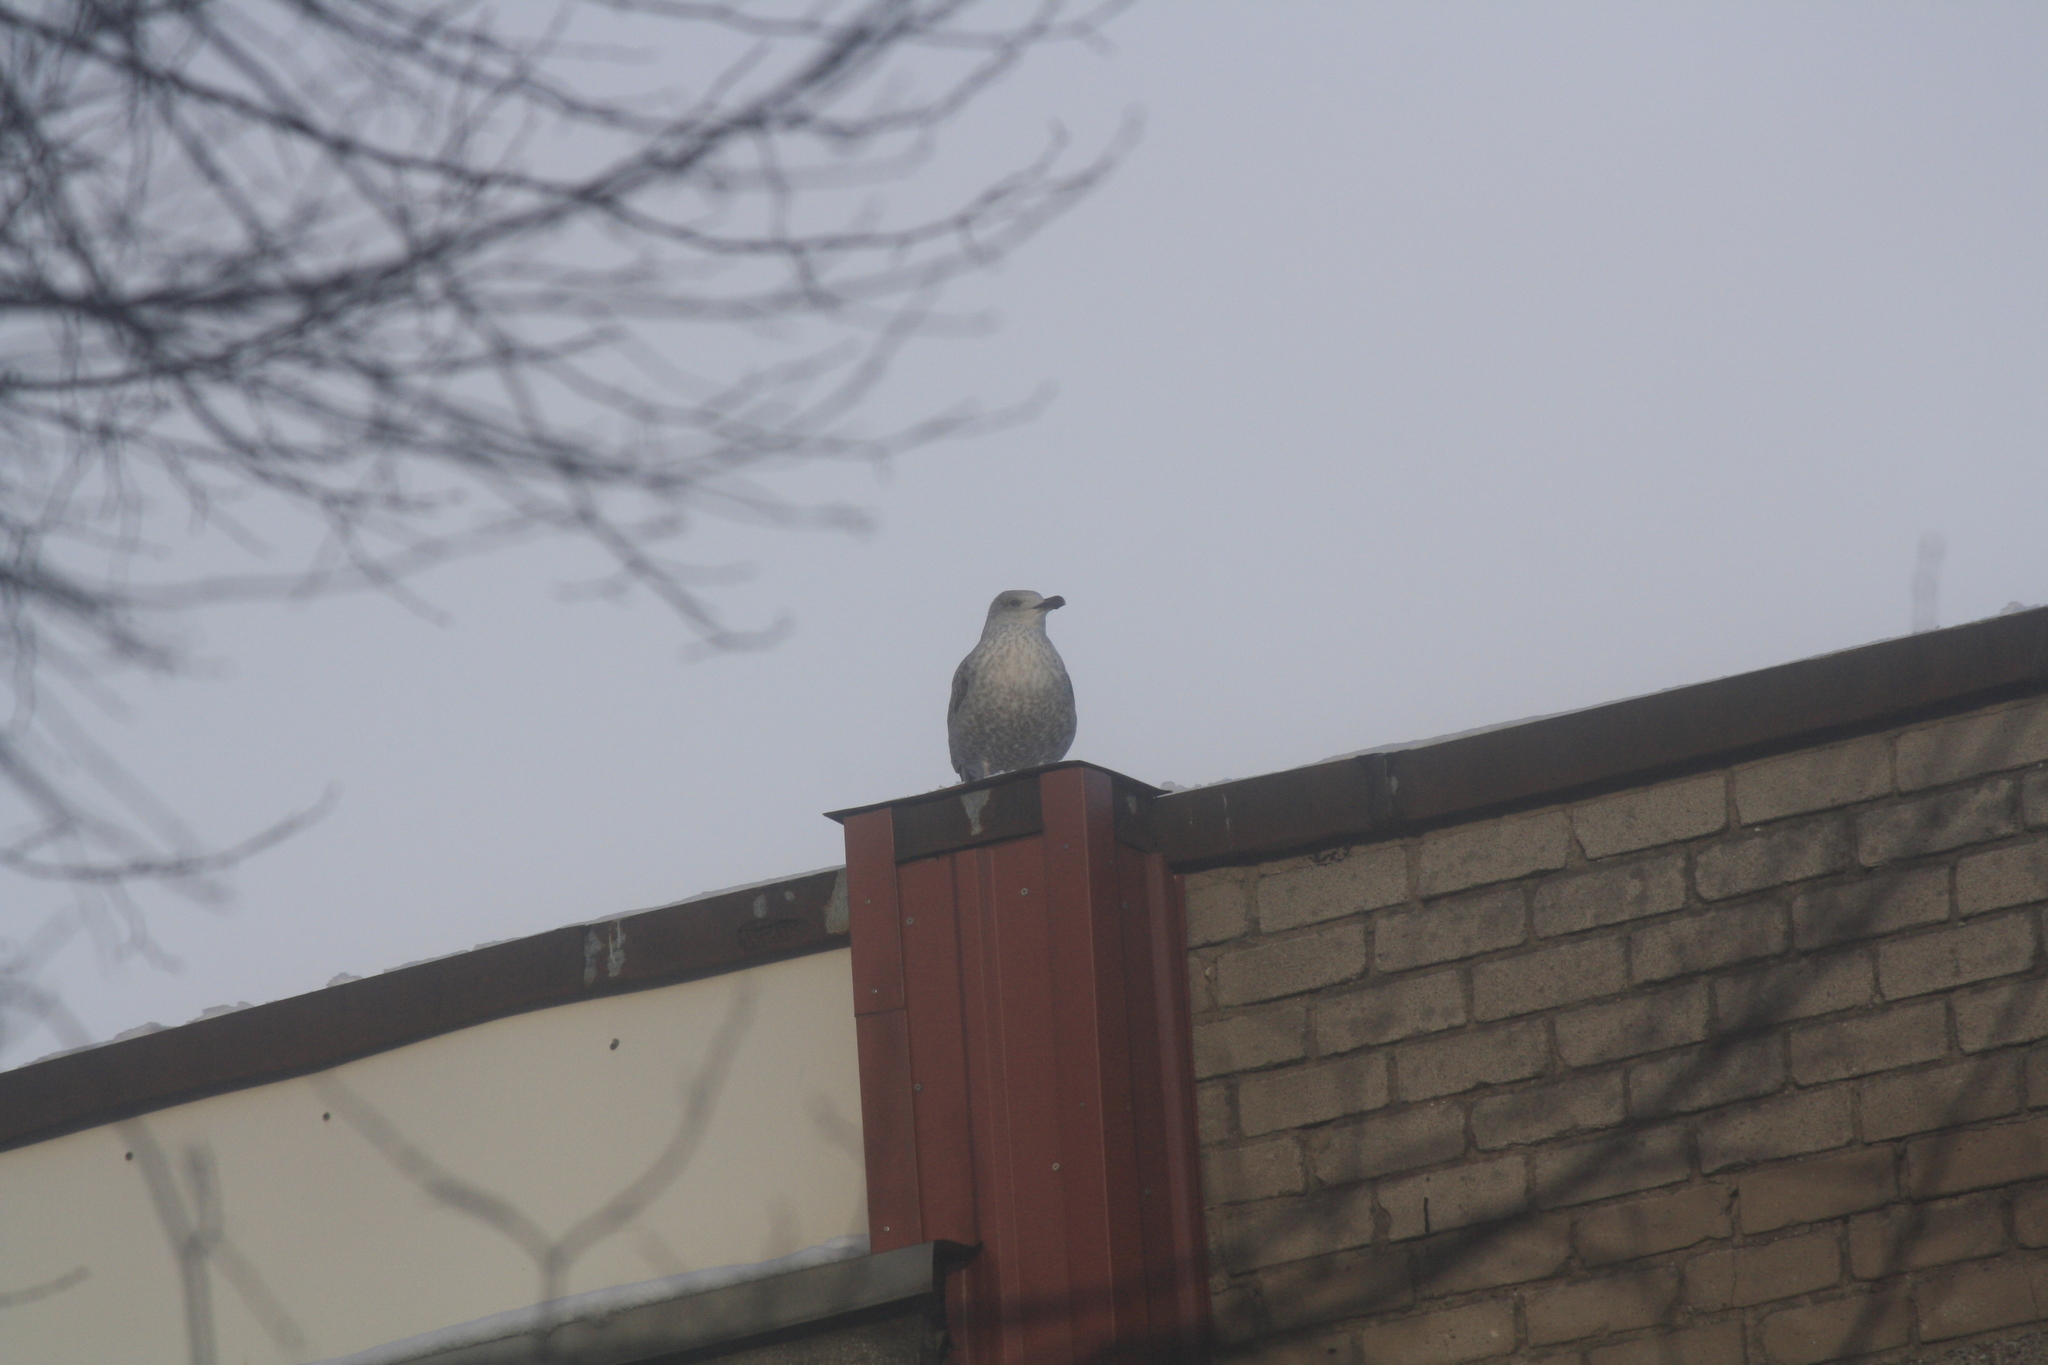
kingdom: Animalia
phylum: Chordata
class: Aves
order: Charadriiformes
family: Laridae
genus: Larus
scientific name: Larus
